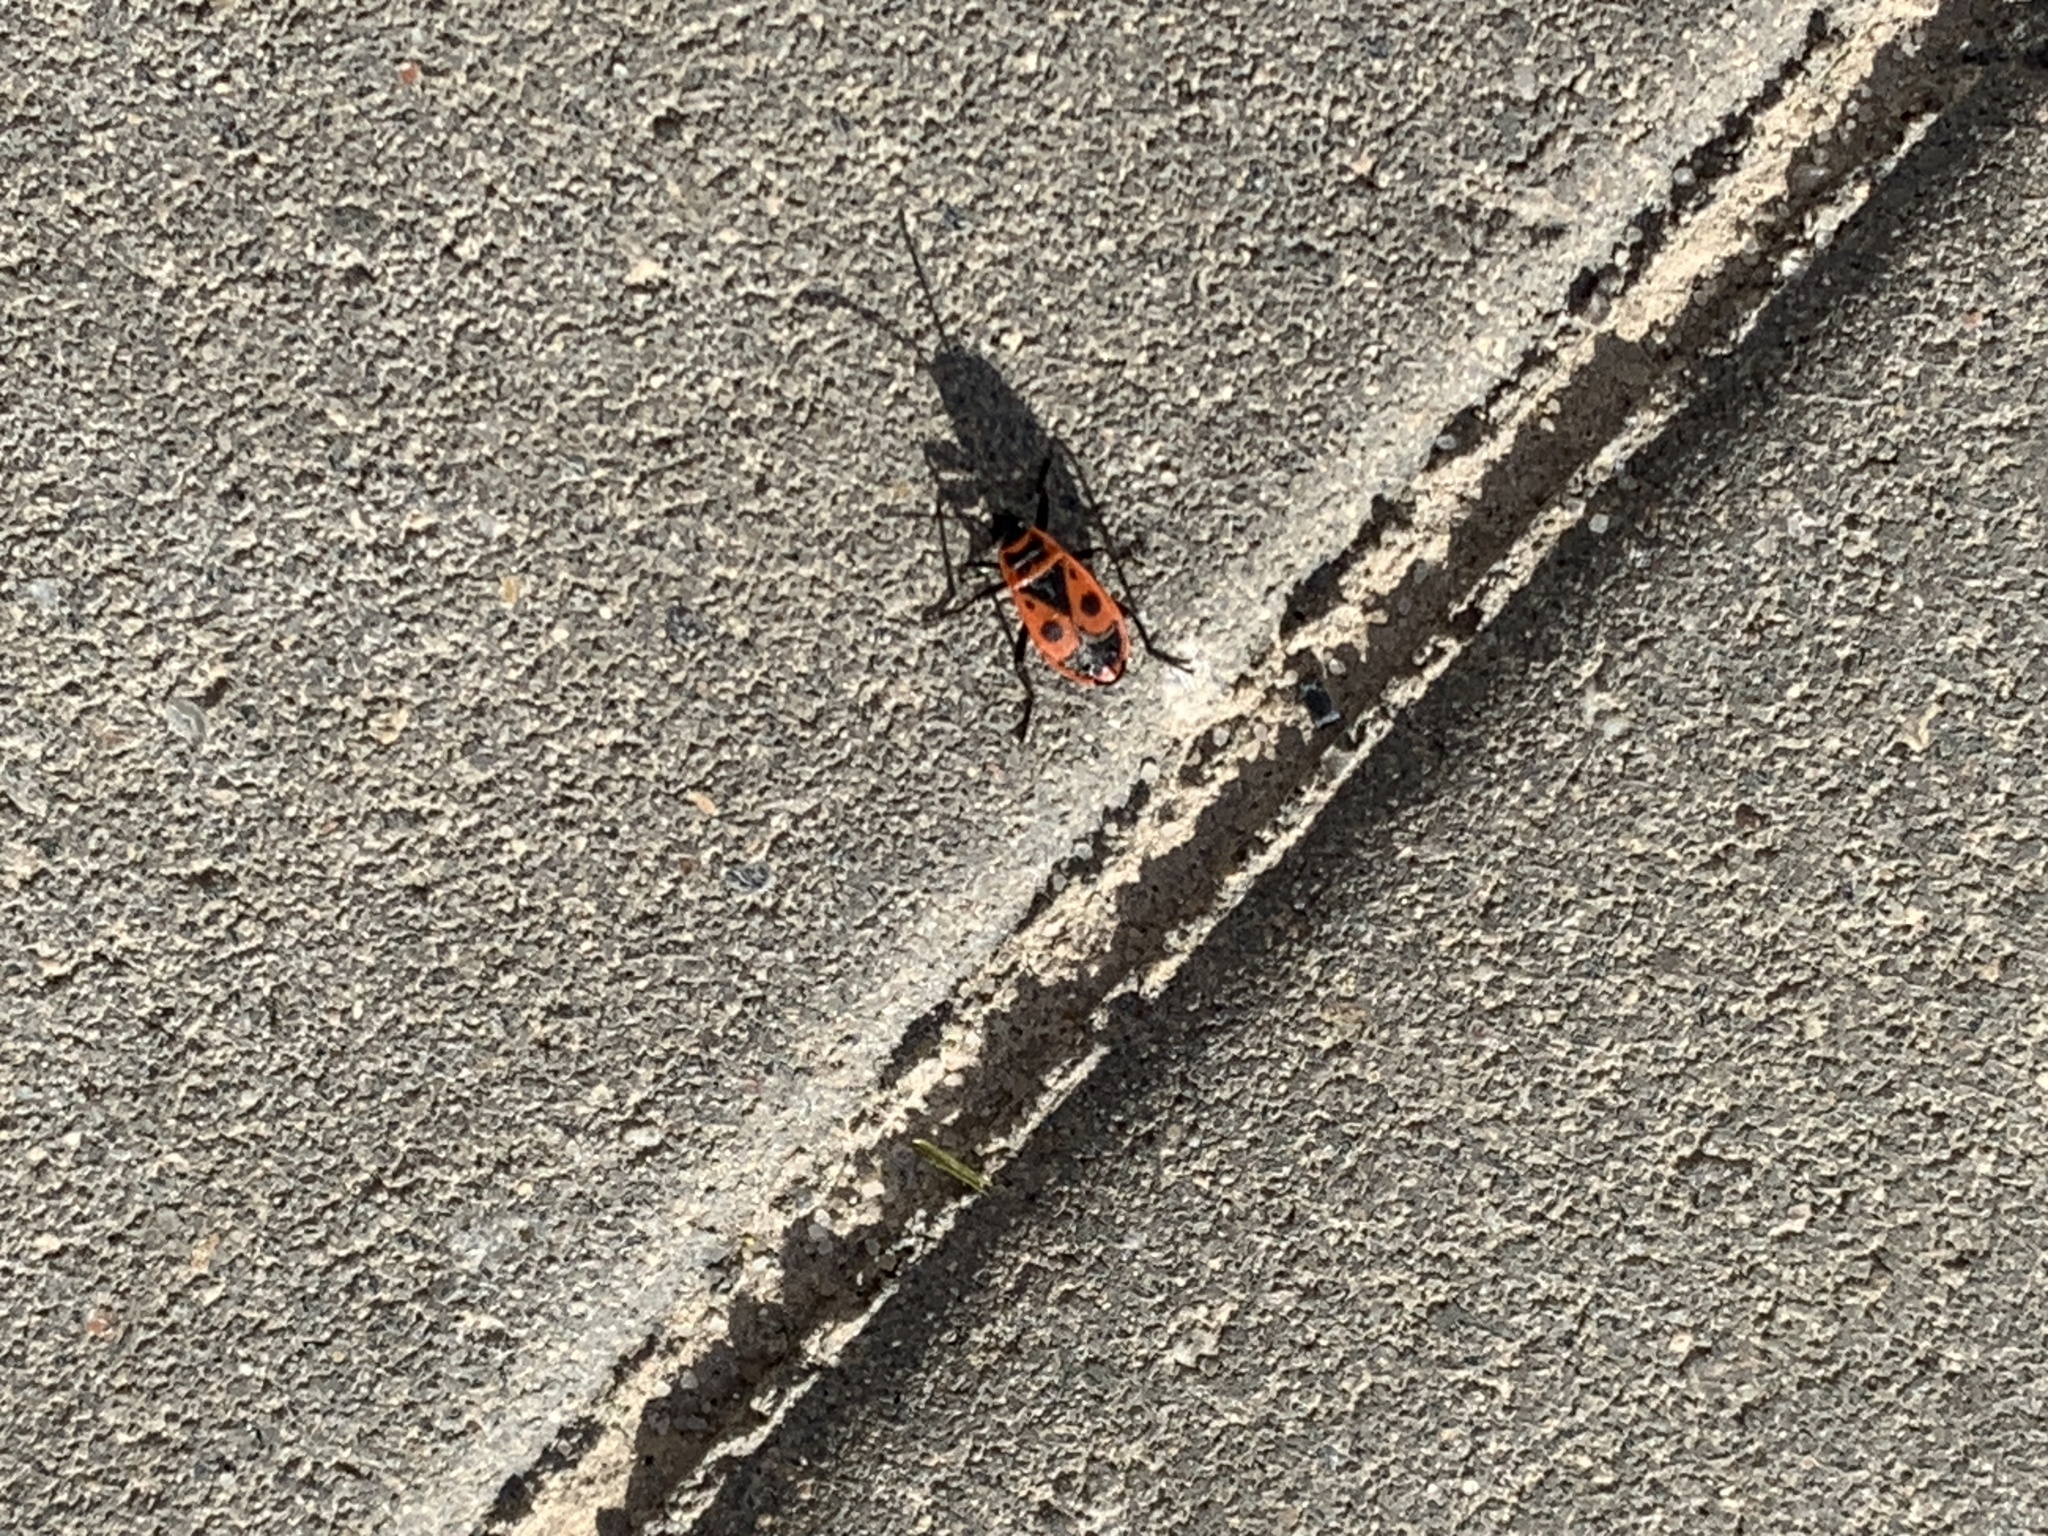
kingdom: Animalia
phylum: Arthropoda
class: Insecta
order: Hemiptera
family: Pyrrhocoridae
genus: Pyrrhocoris
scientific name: Pyrrhocoris apterus
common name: Firebug
